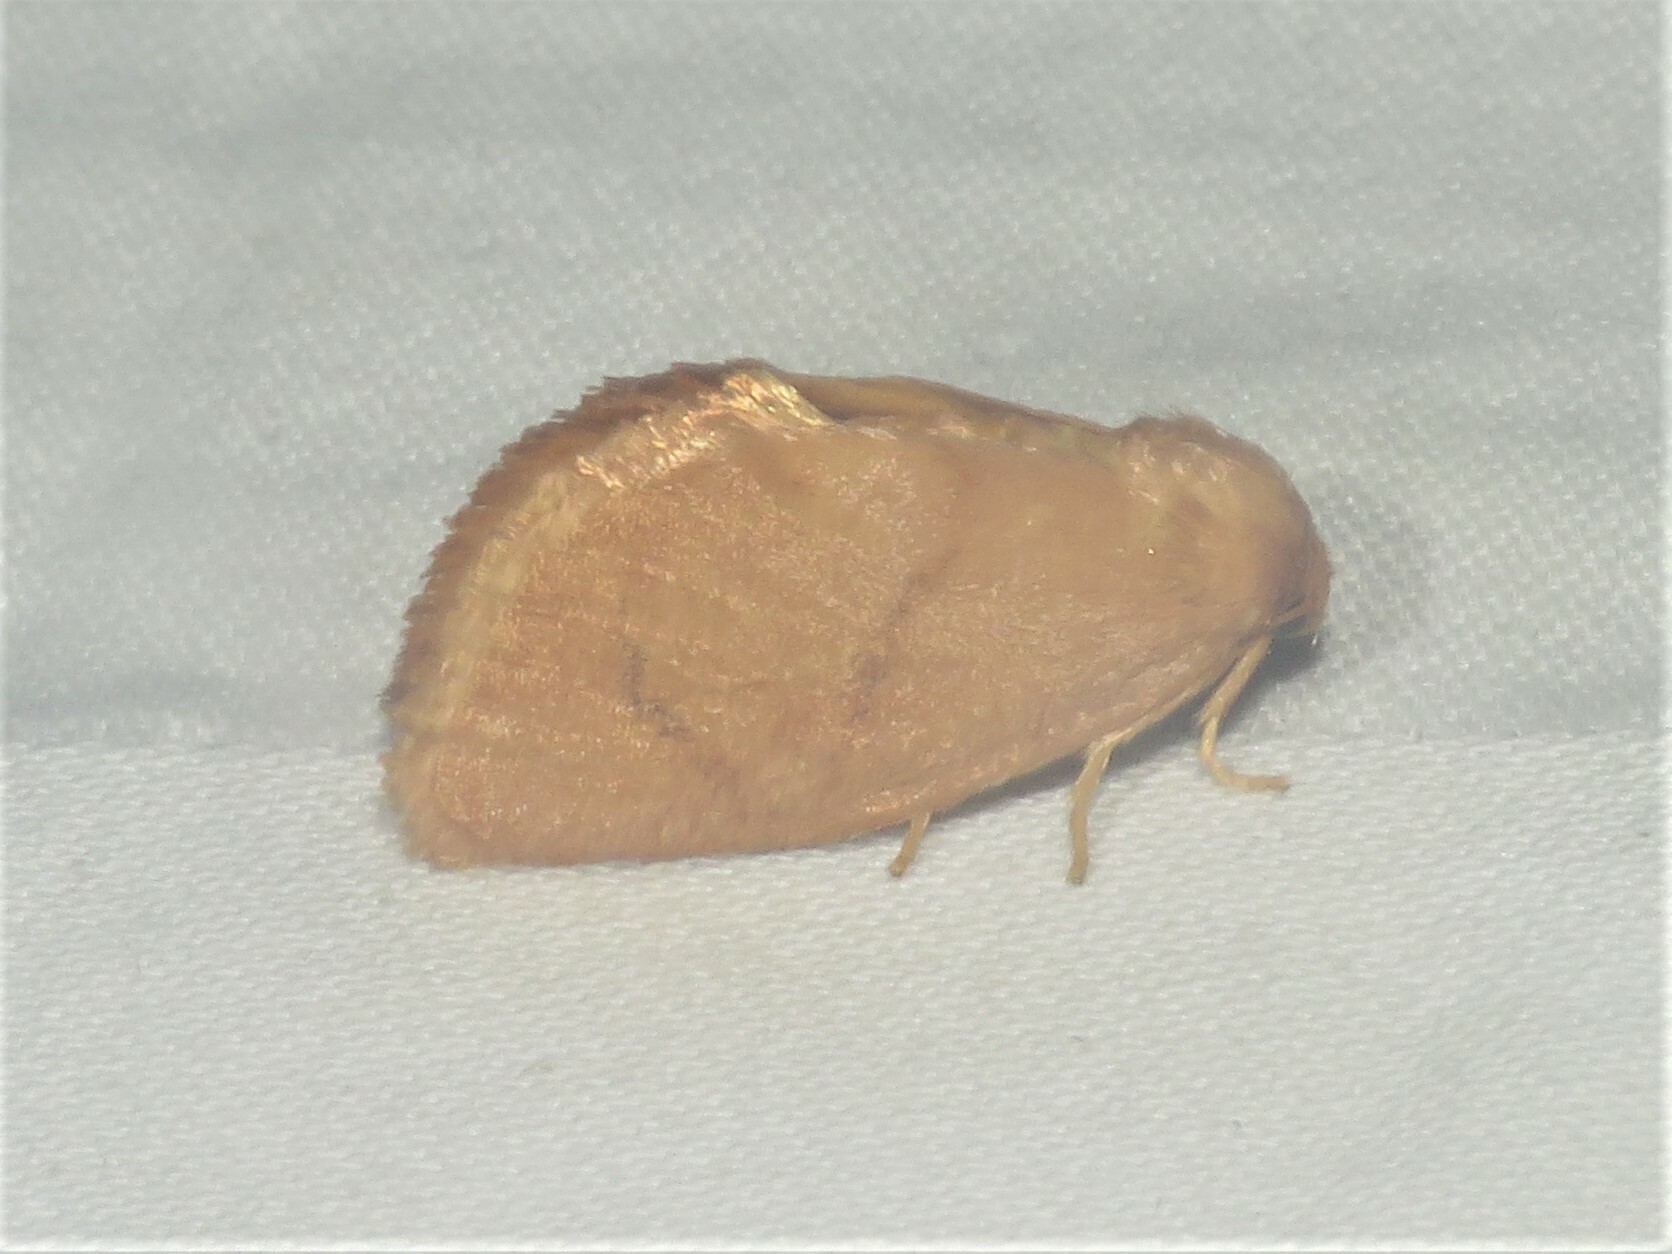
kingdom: Animalia
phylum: Arthropoda
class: Insecta
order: Lepidoptera
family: Limacodidae
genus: Tortricidia
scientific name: Tortricidia pallida
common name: Red-crossed button slug moth
